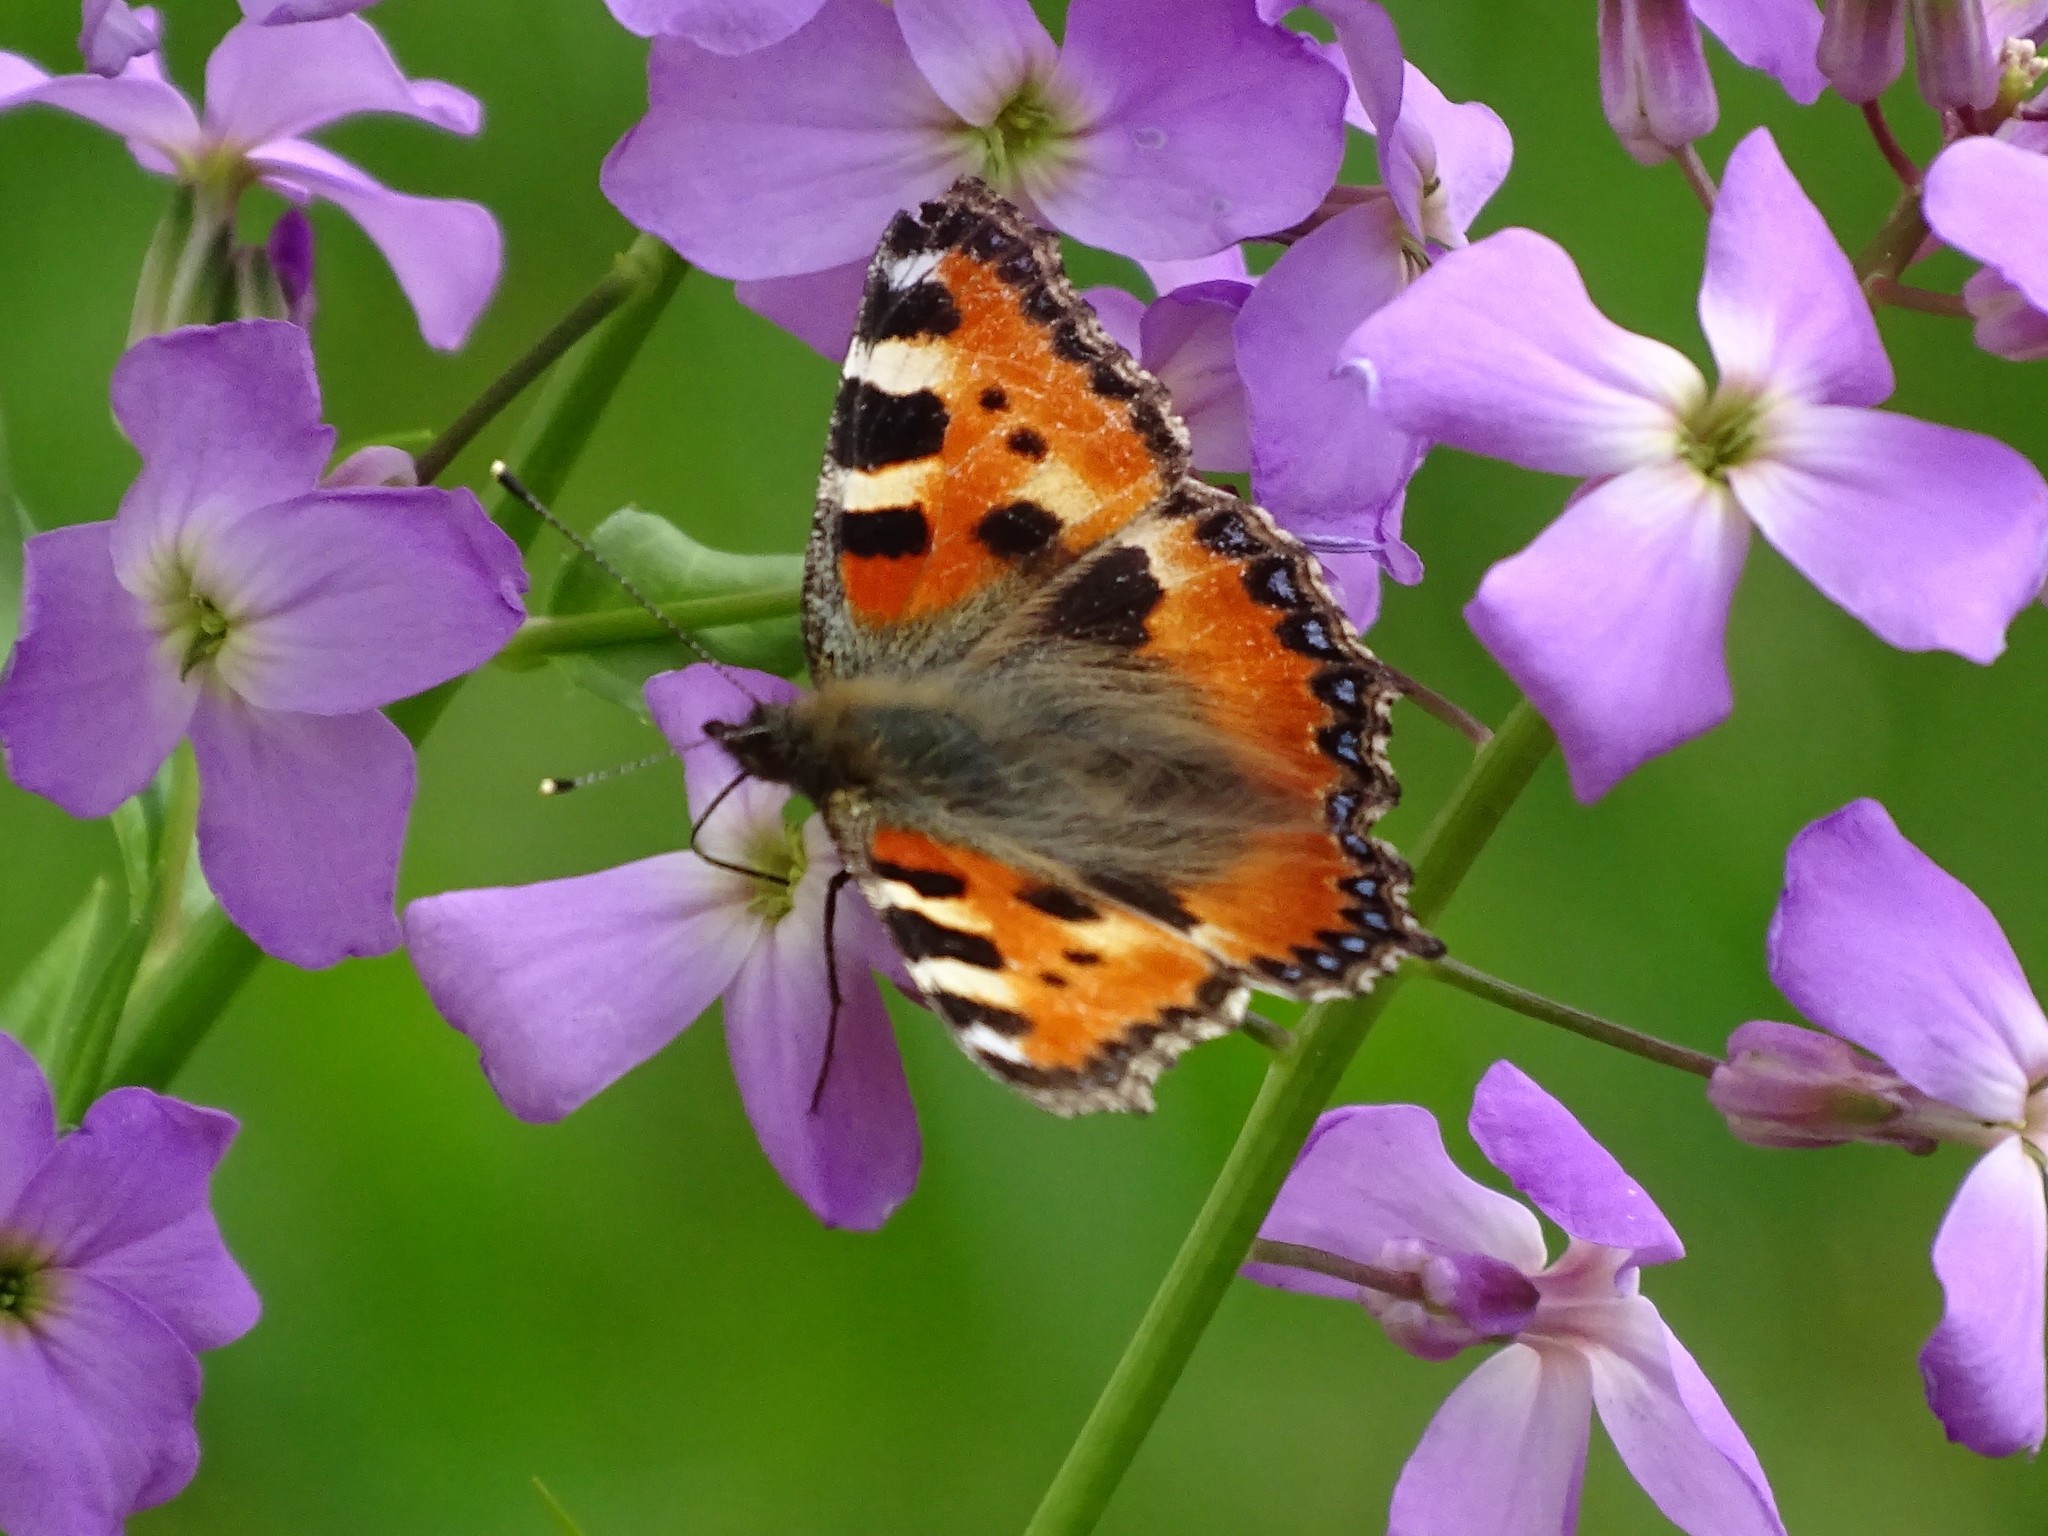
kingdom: Animalia
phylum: Arthropoda
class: Insecta
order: Lepidoptera
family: Nymphalidae
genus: Aglais
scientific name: Aglais urticae
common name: Small tortoiseshell
